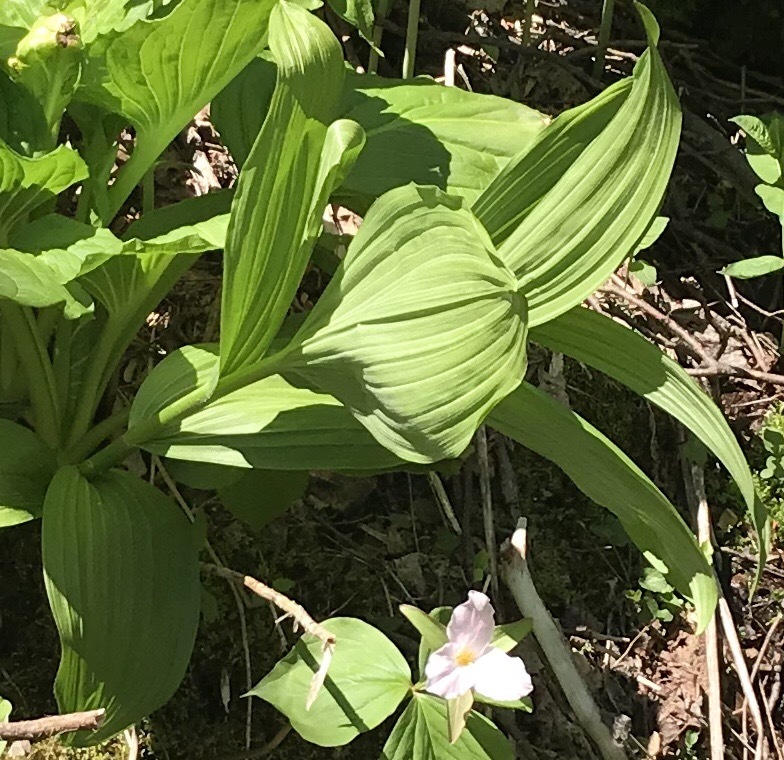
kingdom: Plantae
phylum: Tracheophyta
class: Liliopsida
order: Liliales
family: Melanthiaceae
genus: Veratrum
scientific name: Veratrum viride
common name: American false hellebore
